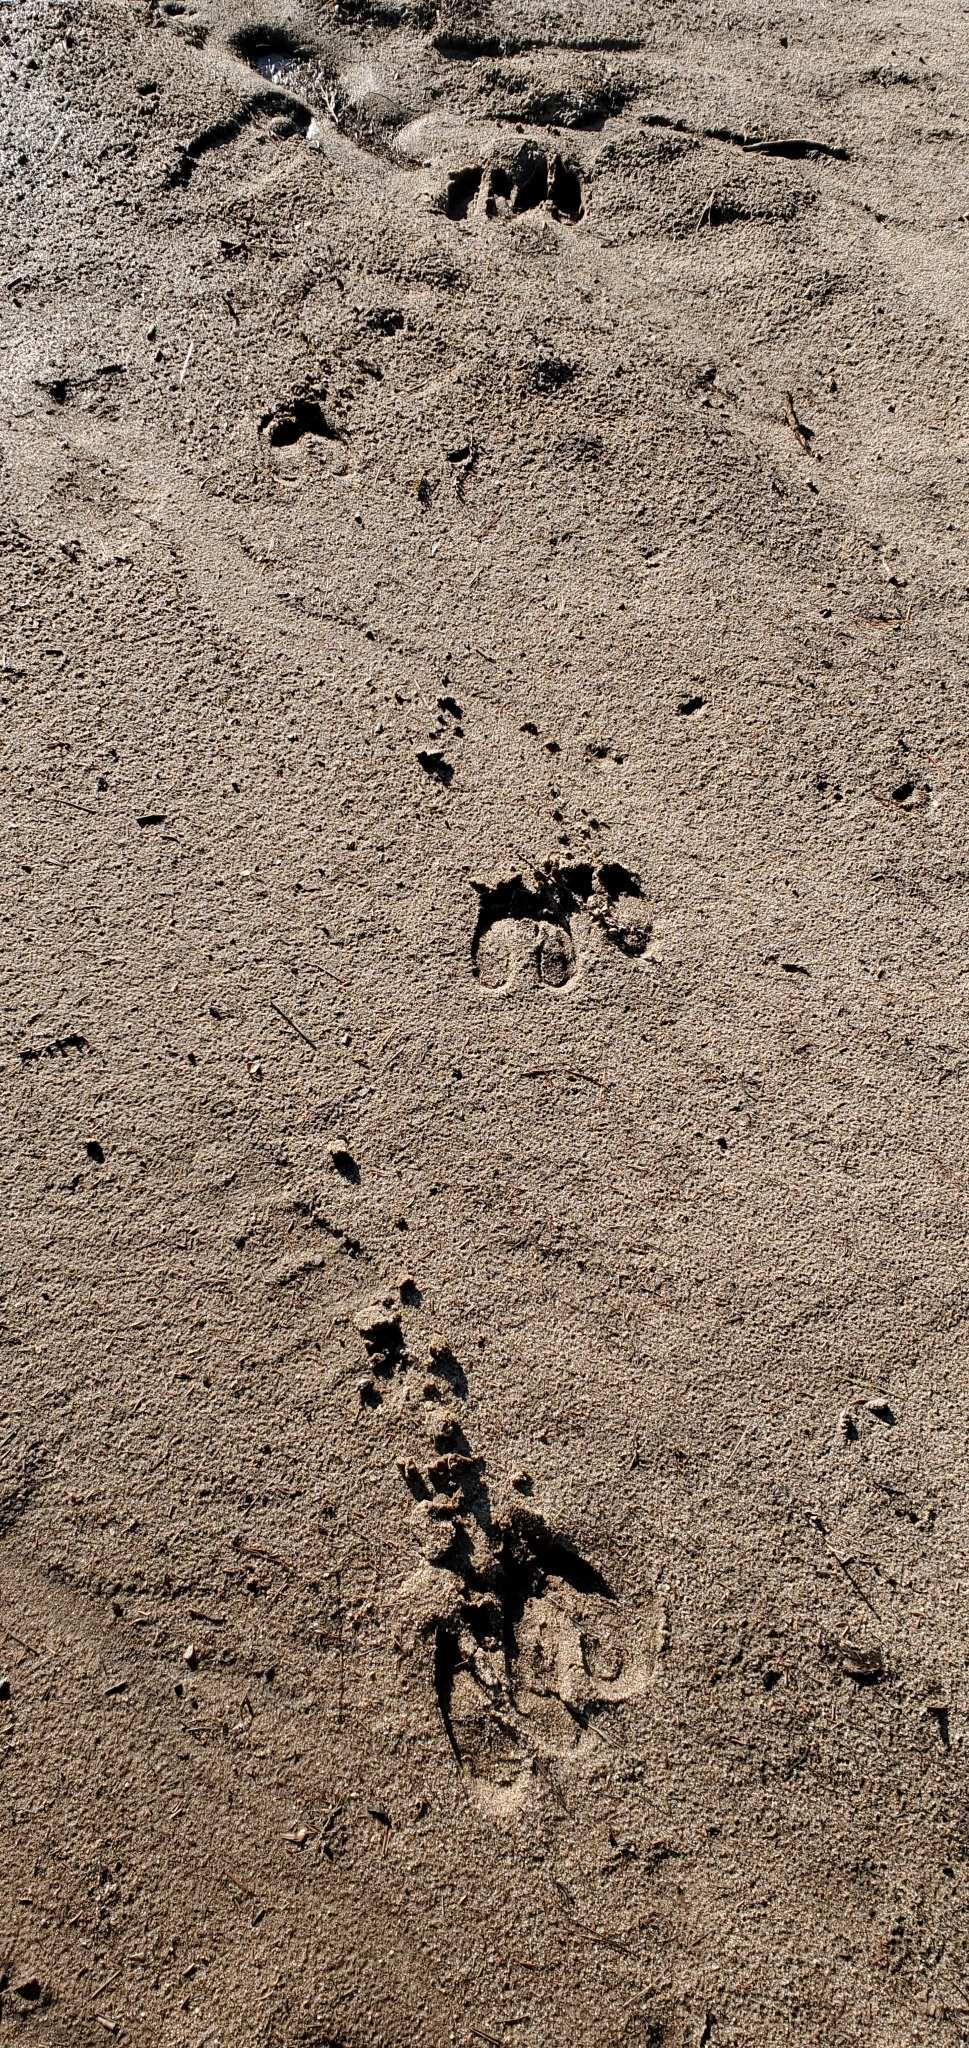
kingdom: Animalia
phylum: Chordata
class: Mammalia
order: Artiodactyla
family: Cervidae
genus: Alces
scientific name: Alces alces
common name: Moose
